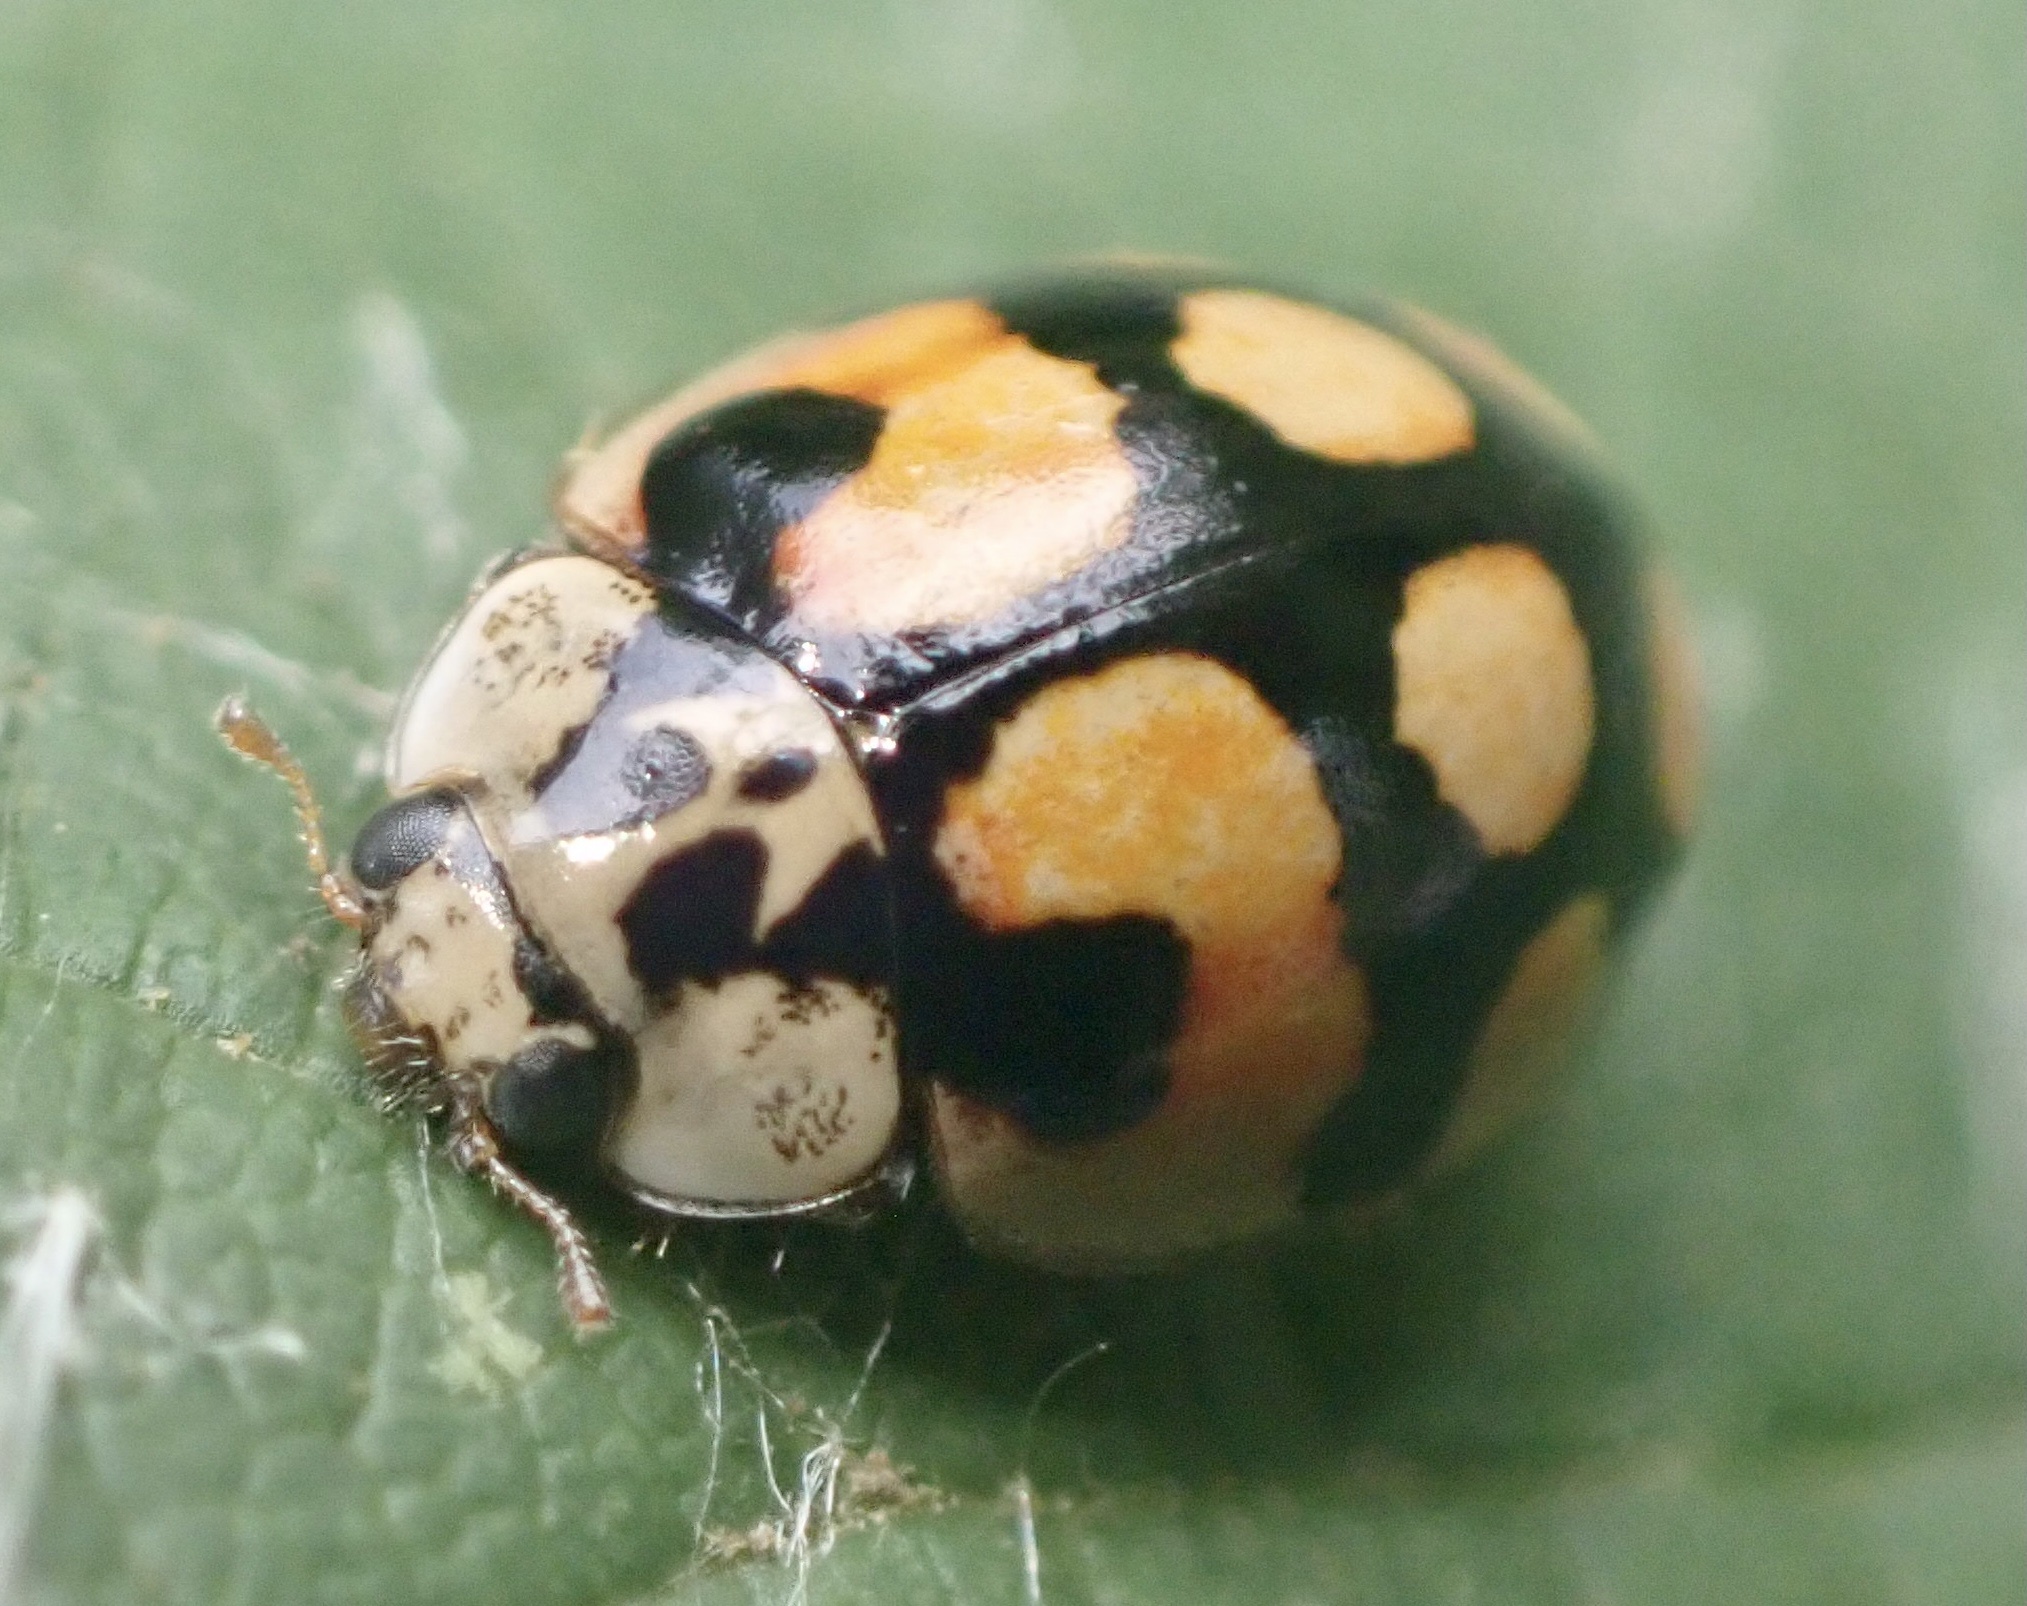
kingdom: Animalia
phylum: Arthropoda
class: Insecta
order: Coleoptera
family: Coccinellidae
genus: Adalia
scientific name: Adalia decempunctata
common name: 10-spot ladybird
